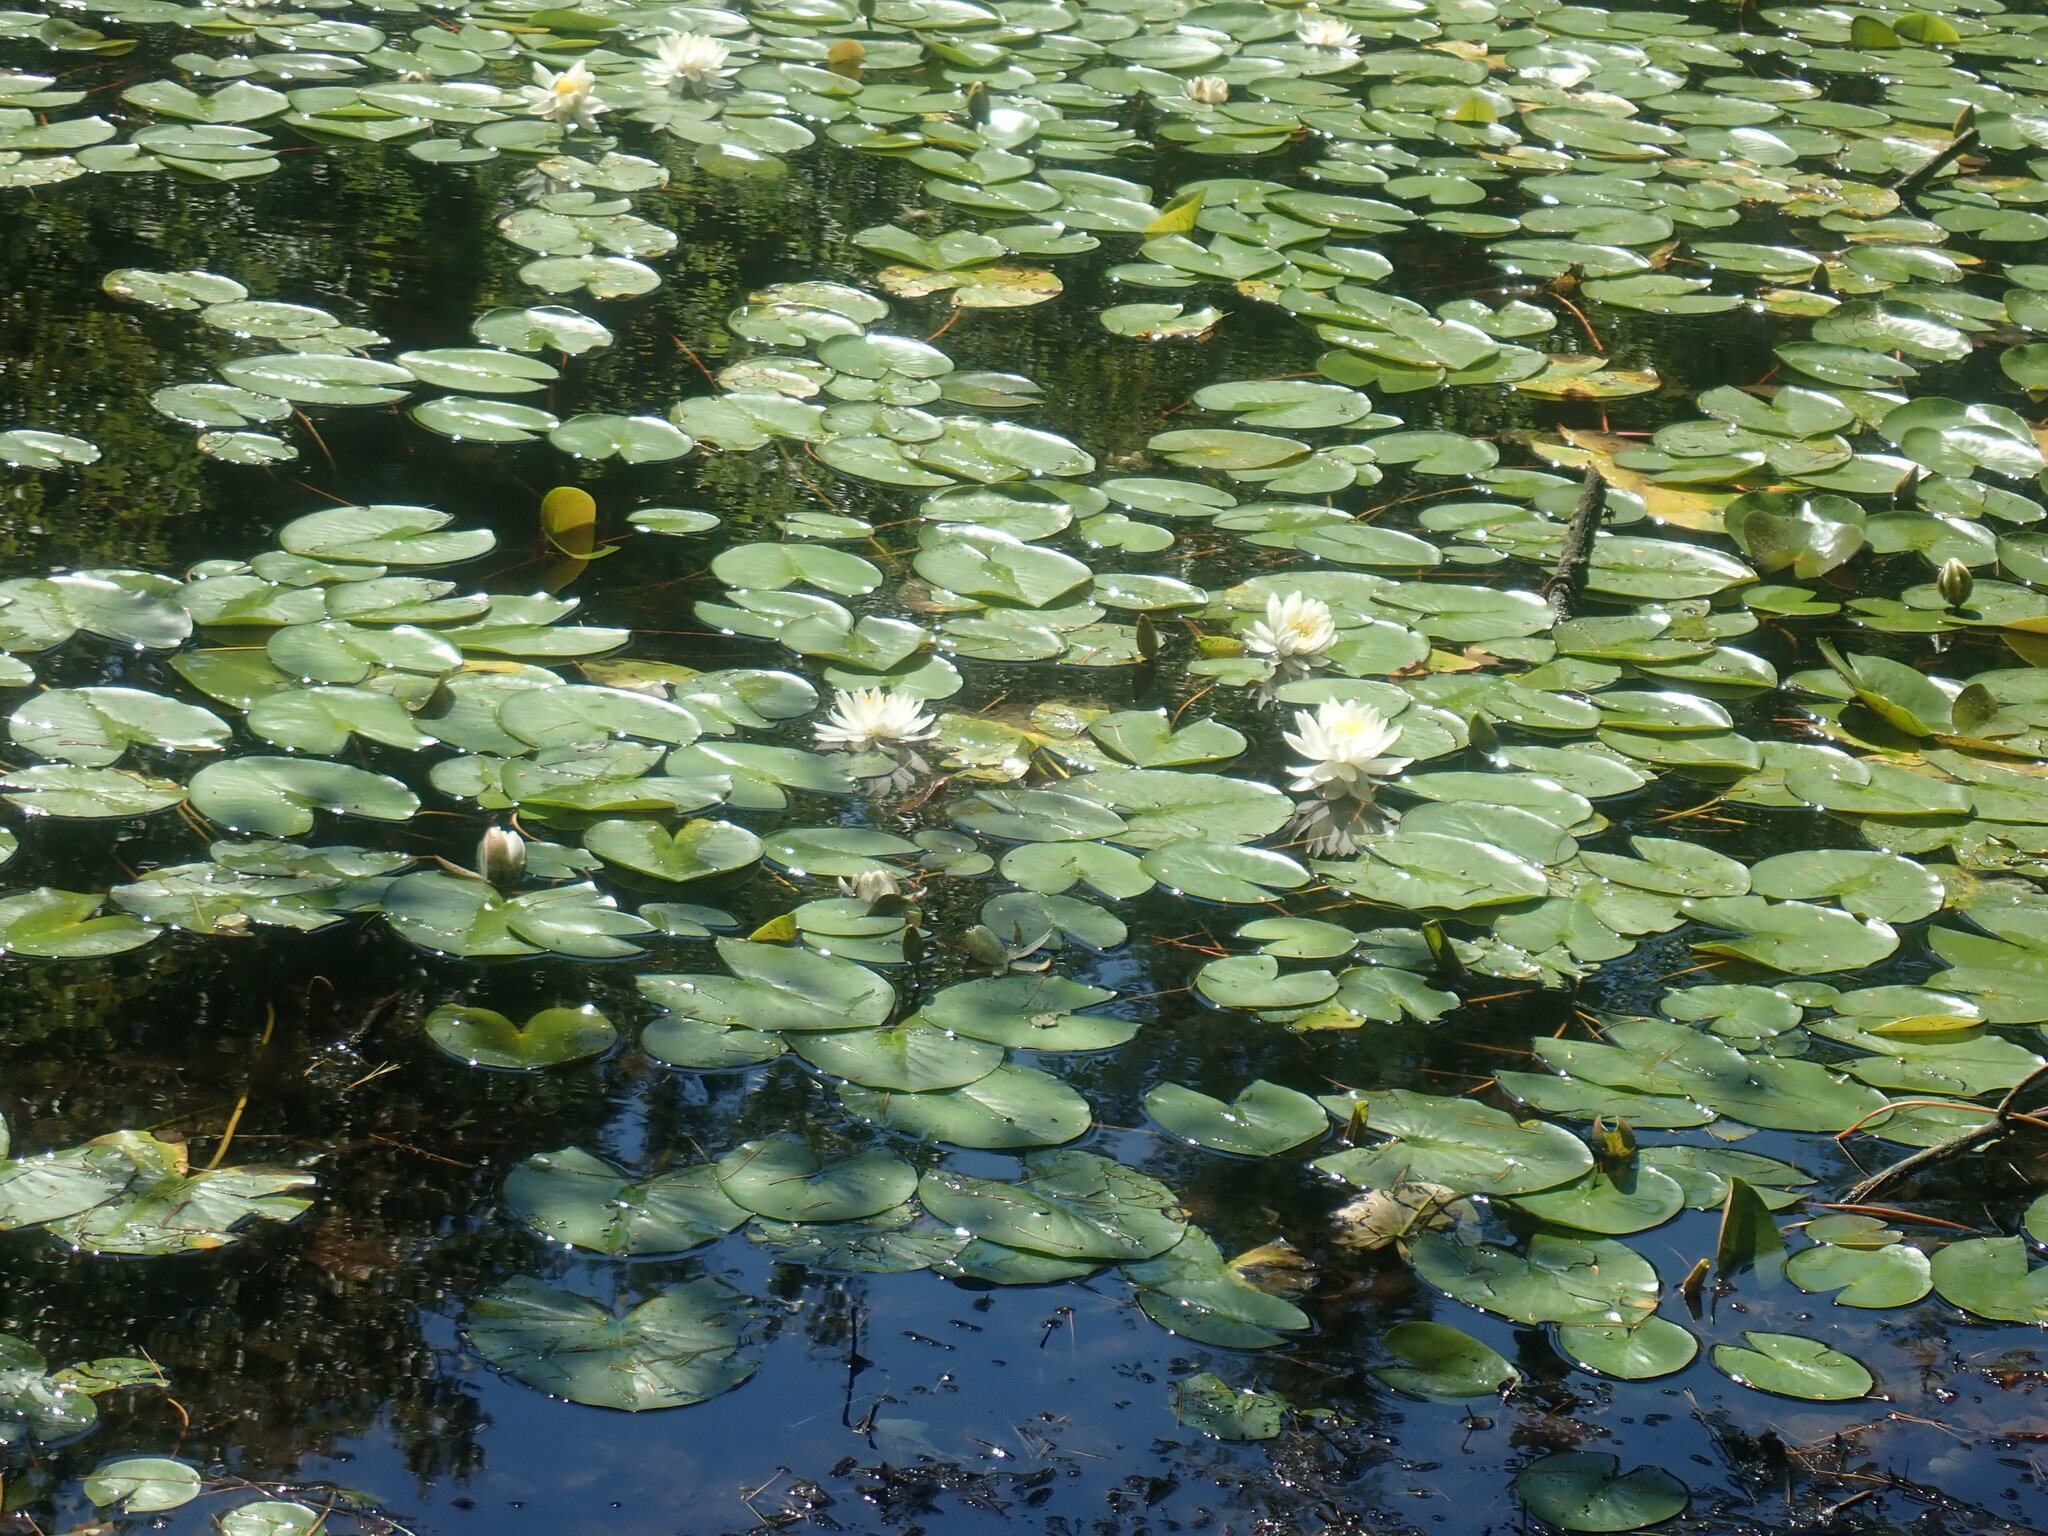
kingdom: Plantae
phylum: Tracheophyta
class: Magnoliopsida
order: Nymphaeales
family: Nymphaeaceae
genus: Nymphaea
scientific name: Nymphaea odorata
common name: Fragrant water-lily
